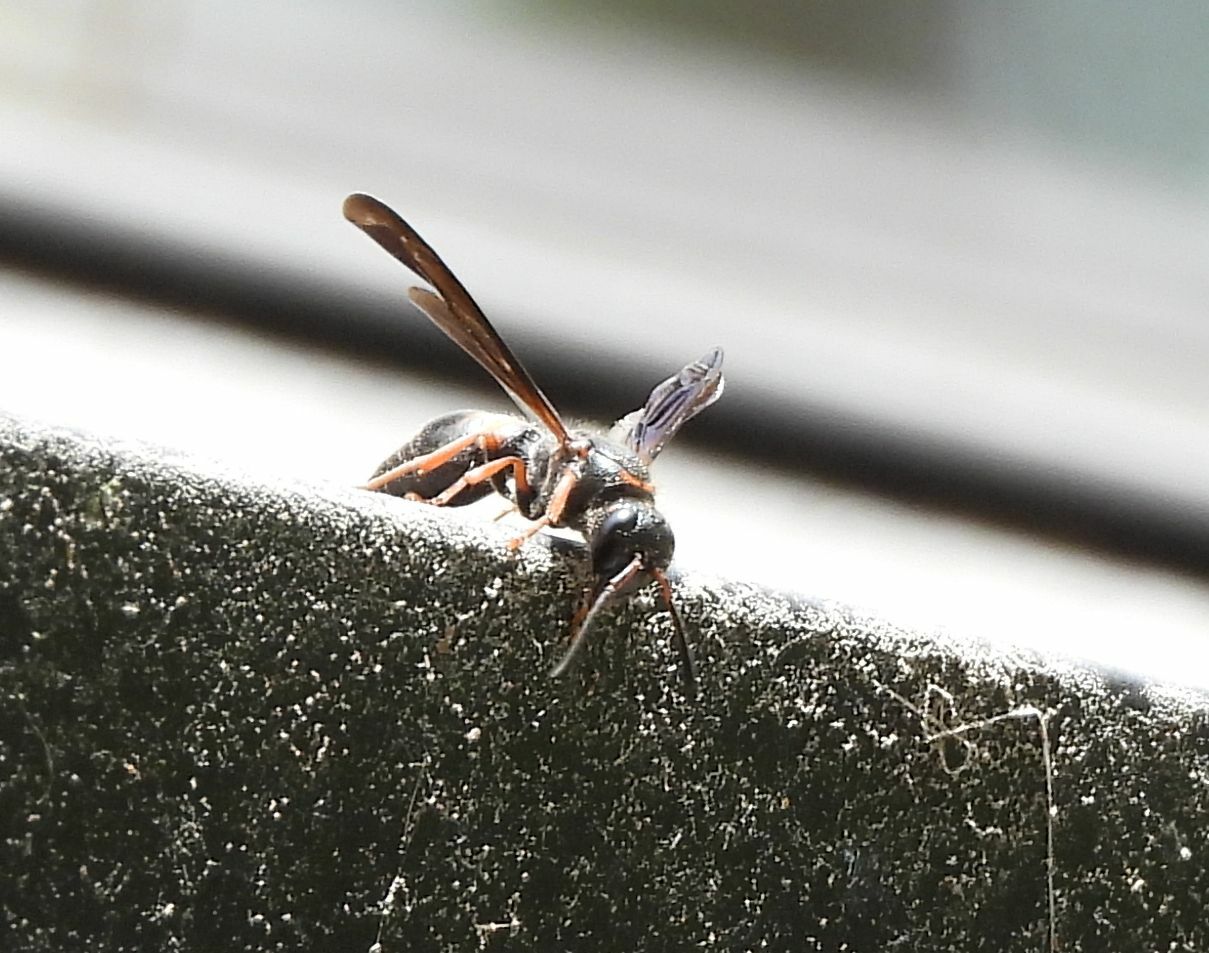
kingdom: Animalia
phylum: Arthropoda
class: Insecta
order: Hymenoptera
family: Vespidae
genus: Ancistrocerus
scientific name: Ancistrocerus unifasciatus
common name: One-banded mason wasp
